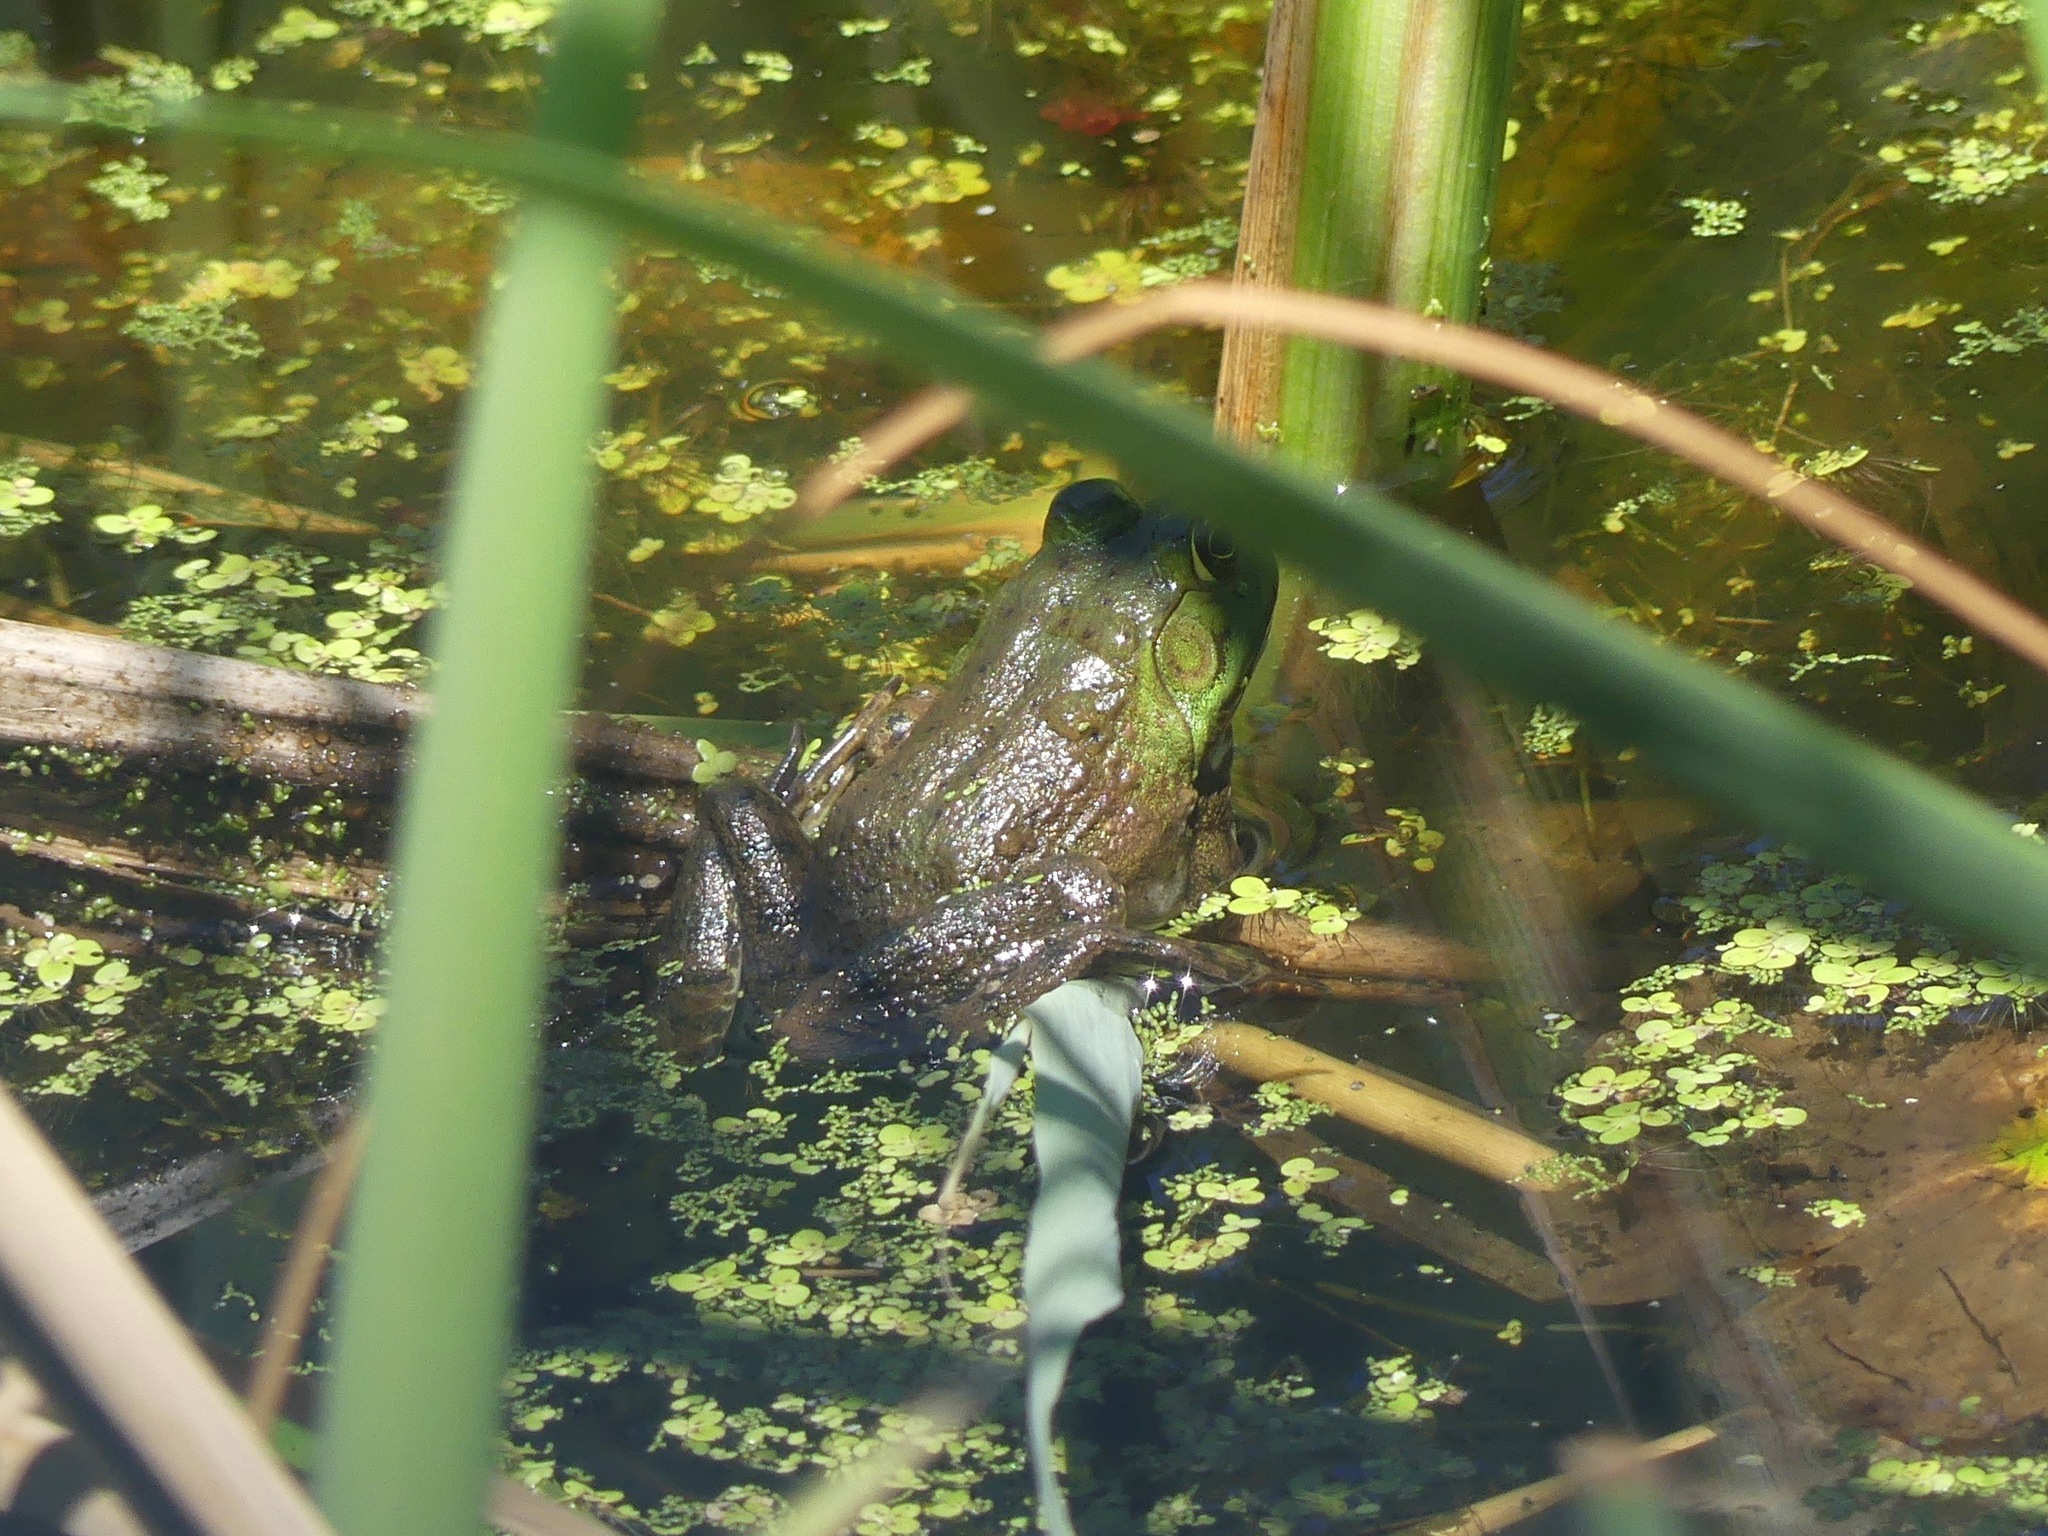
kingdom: Animalia
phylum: Chordata
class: Amphibia
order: Anura
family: Ranidae
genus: Lithobates
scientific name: Lithobates catesbeianus
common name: American bullfrog
